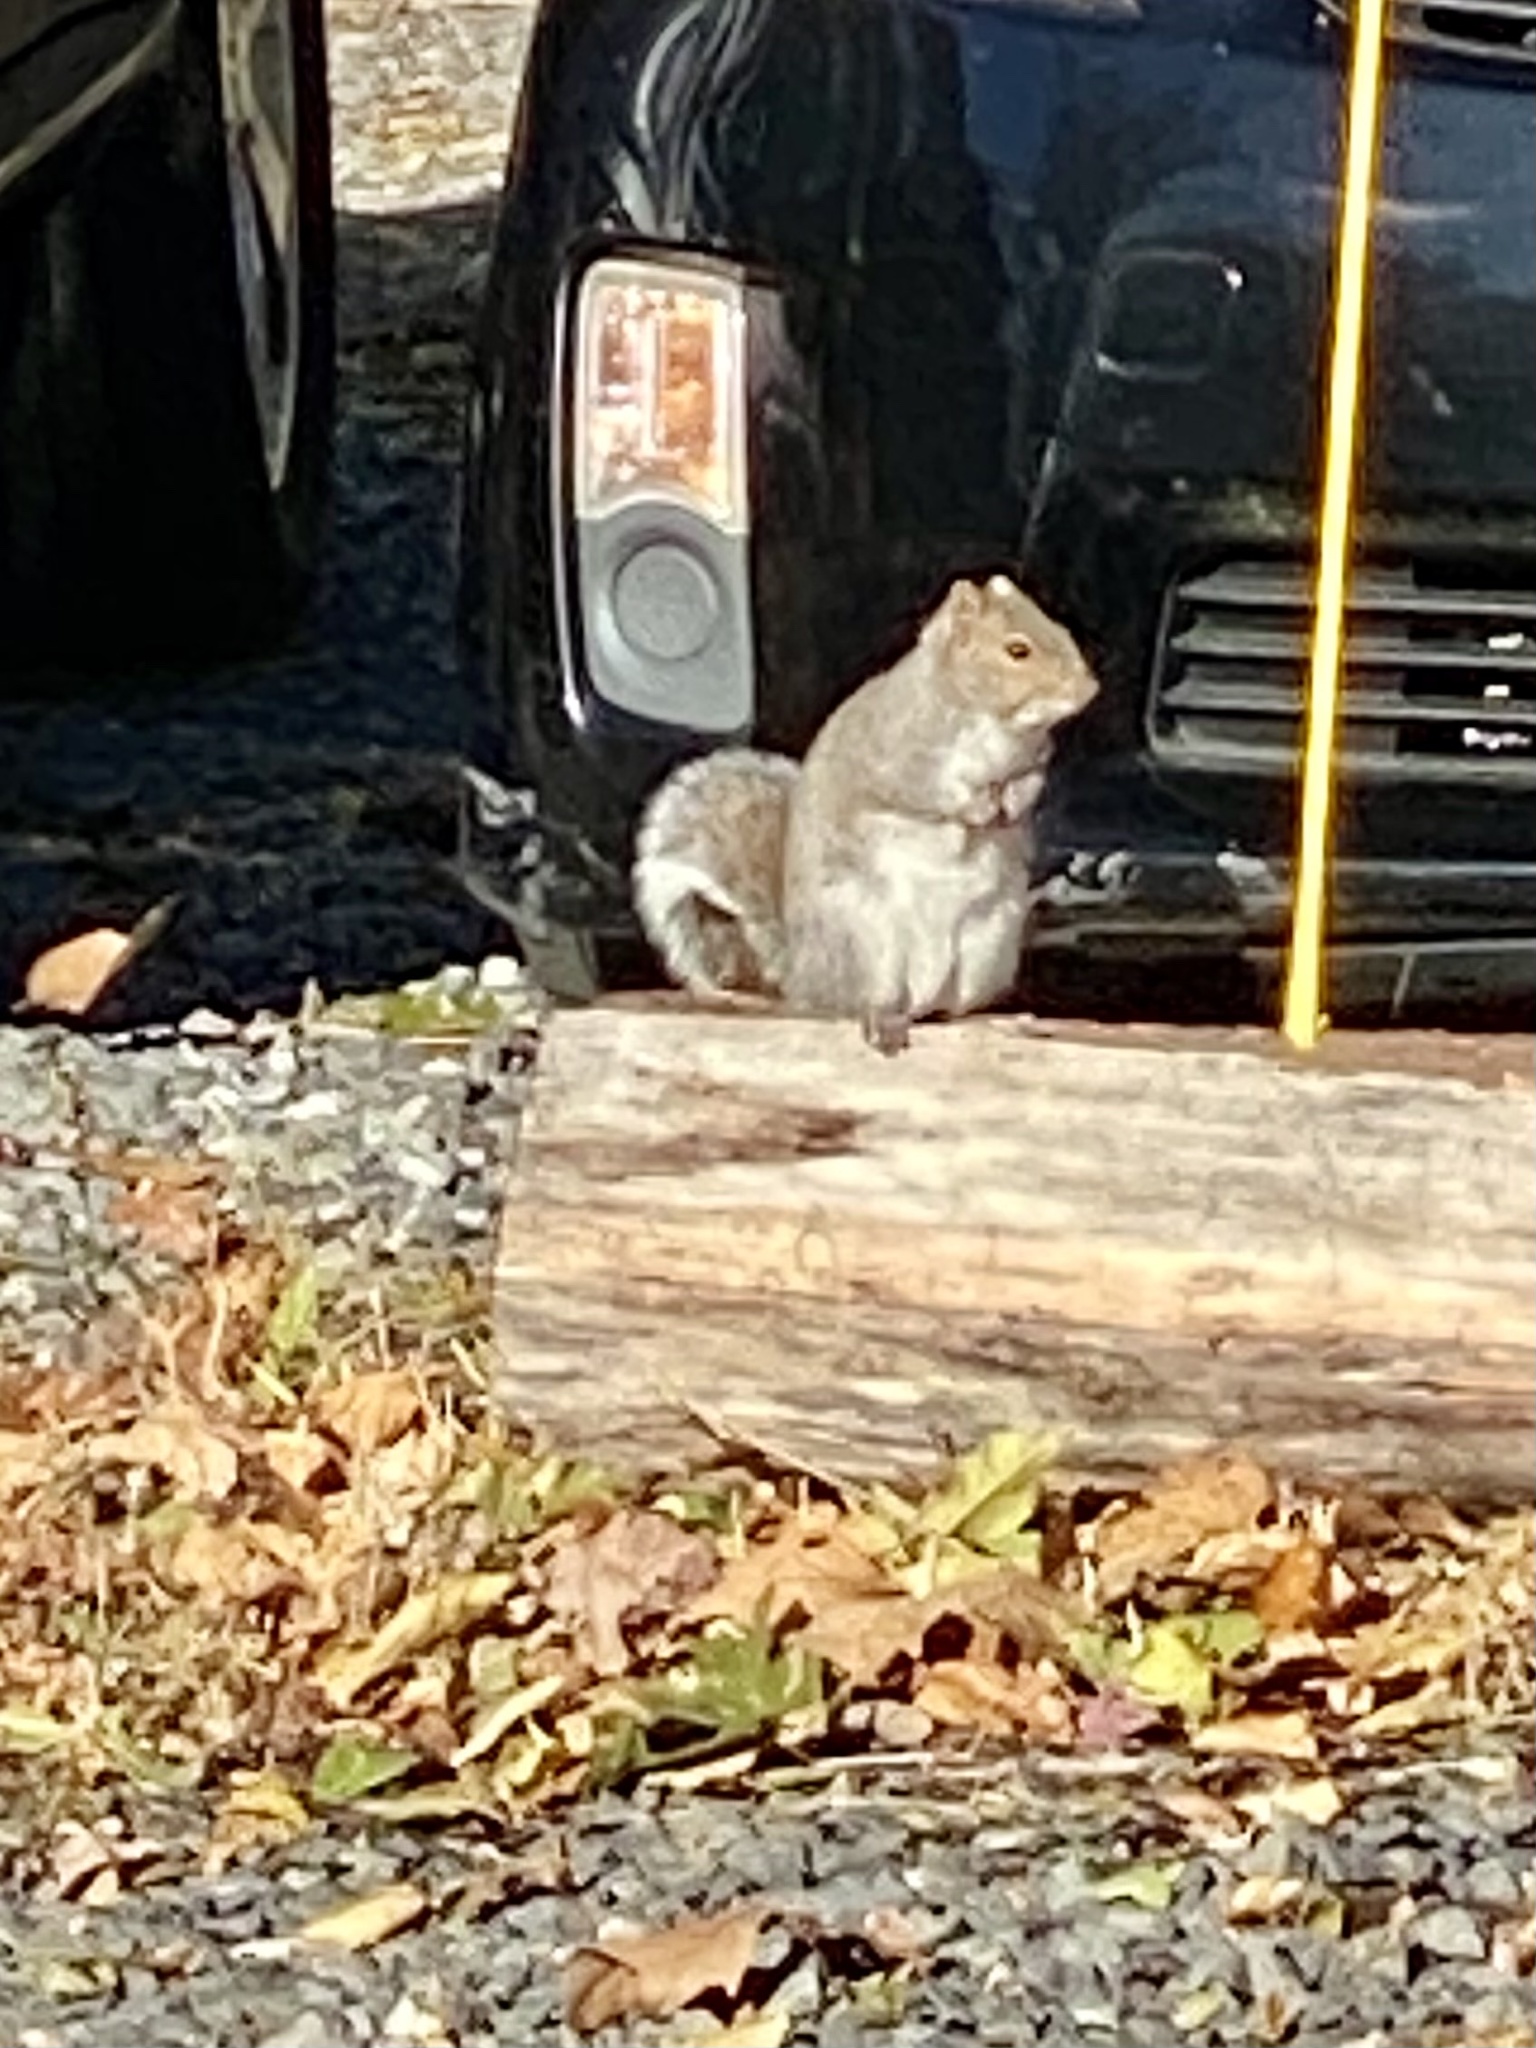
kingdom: Animalia
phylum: Chordata
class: Mammalia
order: Rodentia
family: Sciuridae
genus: Sciurus
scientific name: Sciurus carolinensis
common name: Eastern gray squirrel
